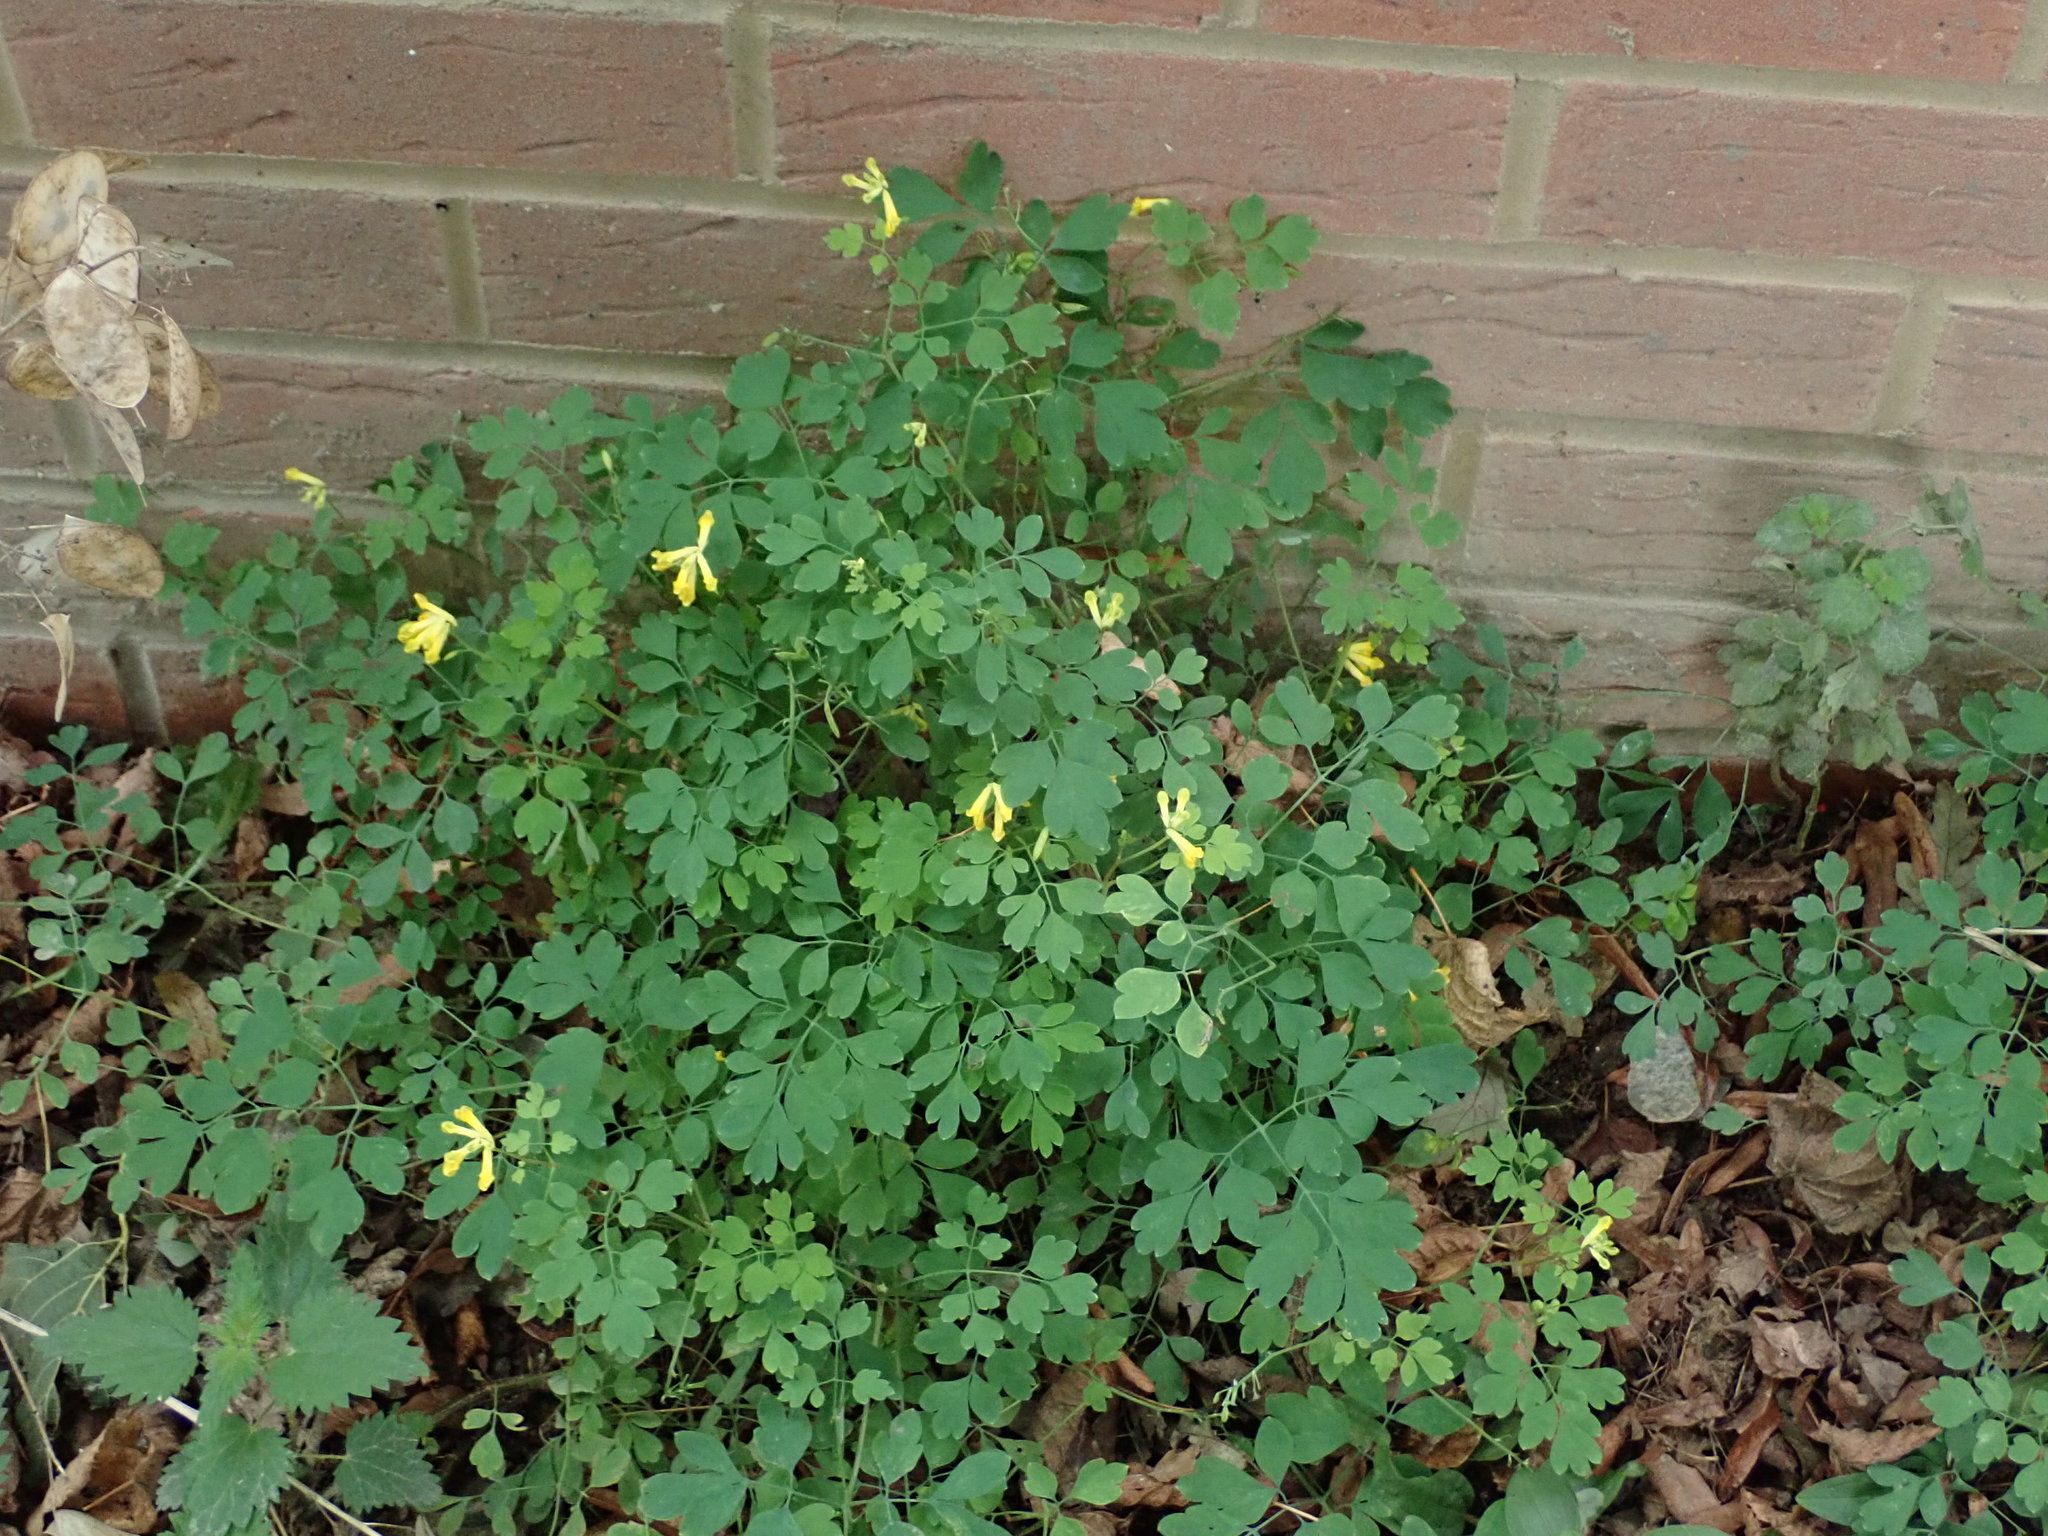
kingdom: Plantae
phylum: Tracheophyta
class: Magnoliopsida
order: Ranunculales
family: Papaveraceae
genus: Pseudofumaria
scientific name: Pseudofumaria lutea
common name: Yellow corydalis
